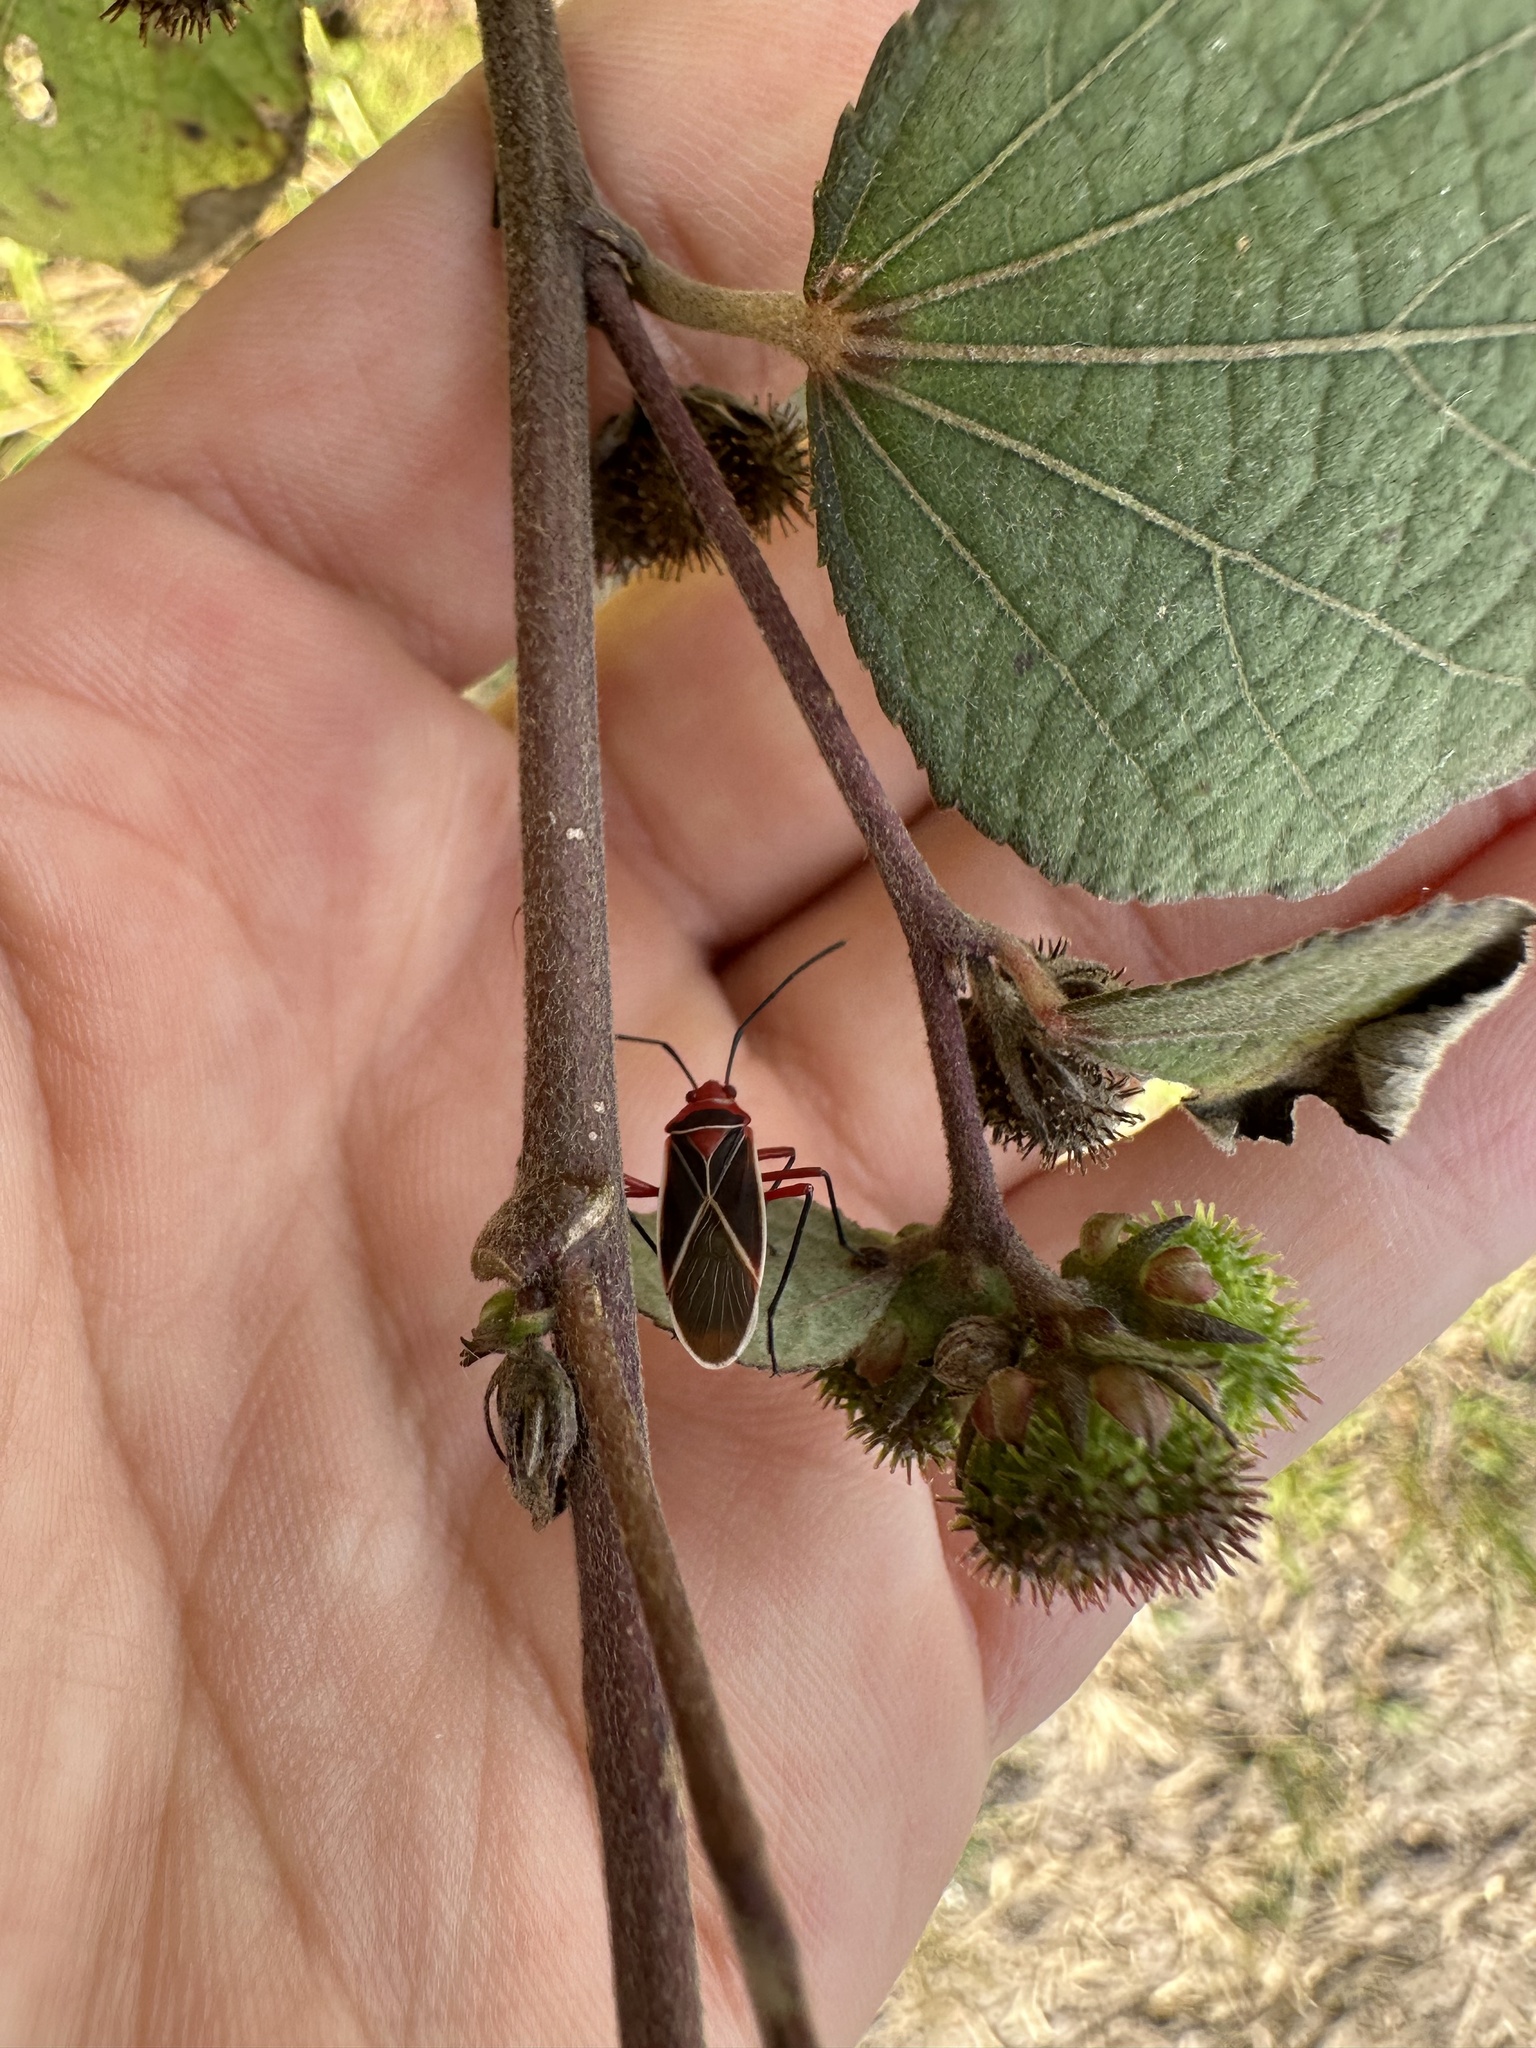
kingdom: Animalia
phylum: Arthropoda
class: Insecta
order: Hemiptera
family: Pyrrhocoridae
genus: Dysdercus
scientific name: Dysdercus suturellus
